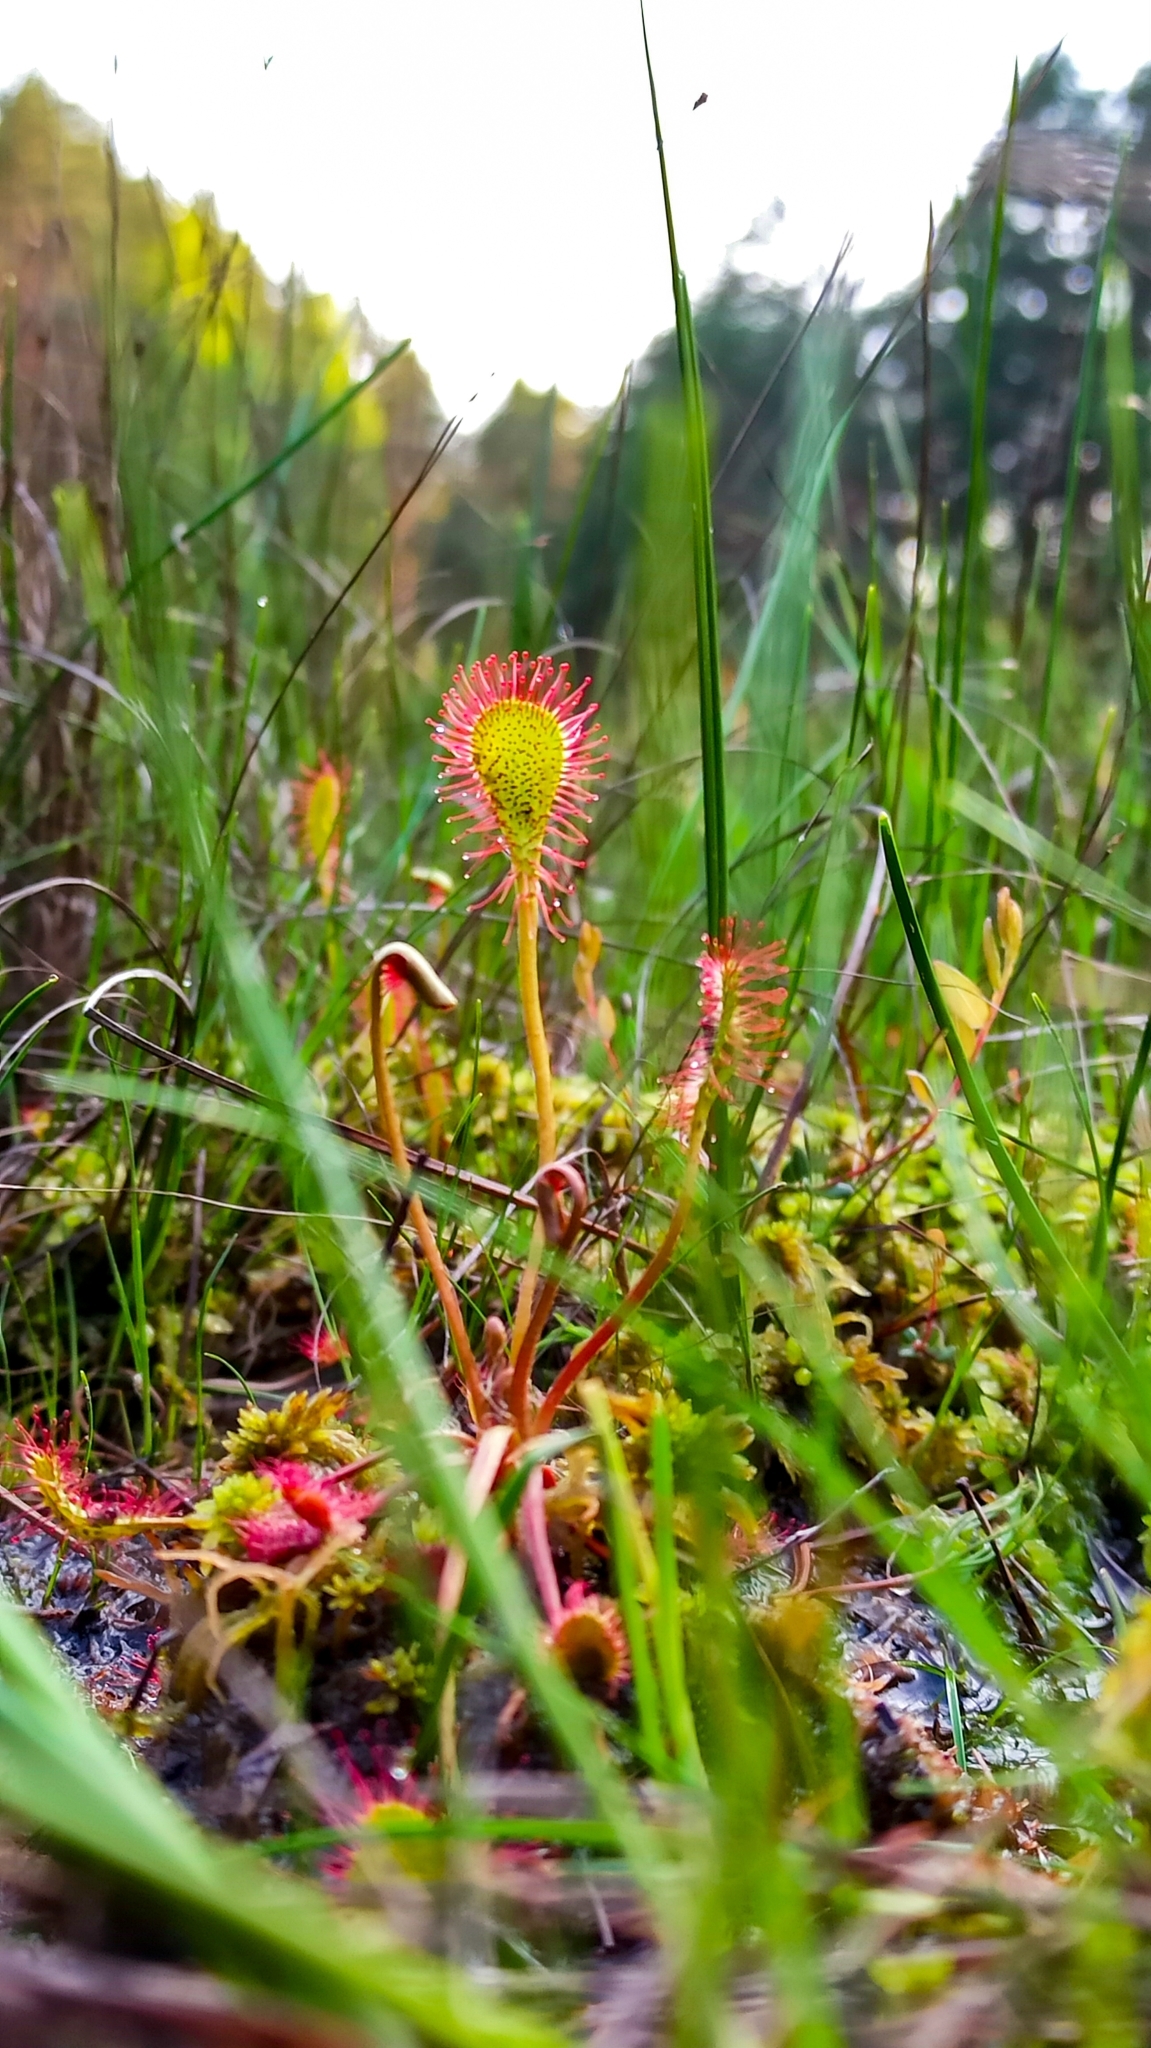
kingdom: Plantae
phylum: Tracheophyta
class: Magnoliopsida
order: Caryophyllales
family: Droseraceae
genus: Drosera
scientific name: Drosera obovata
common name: Ivan's paddle
